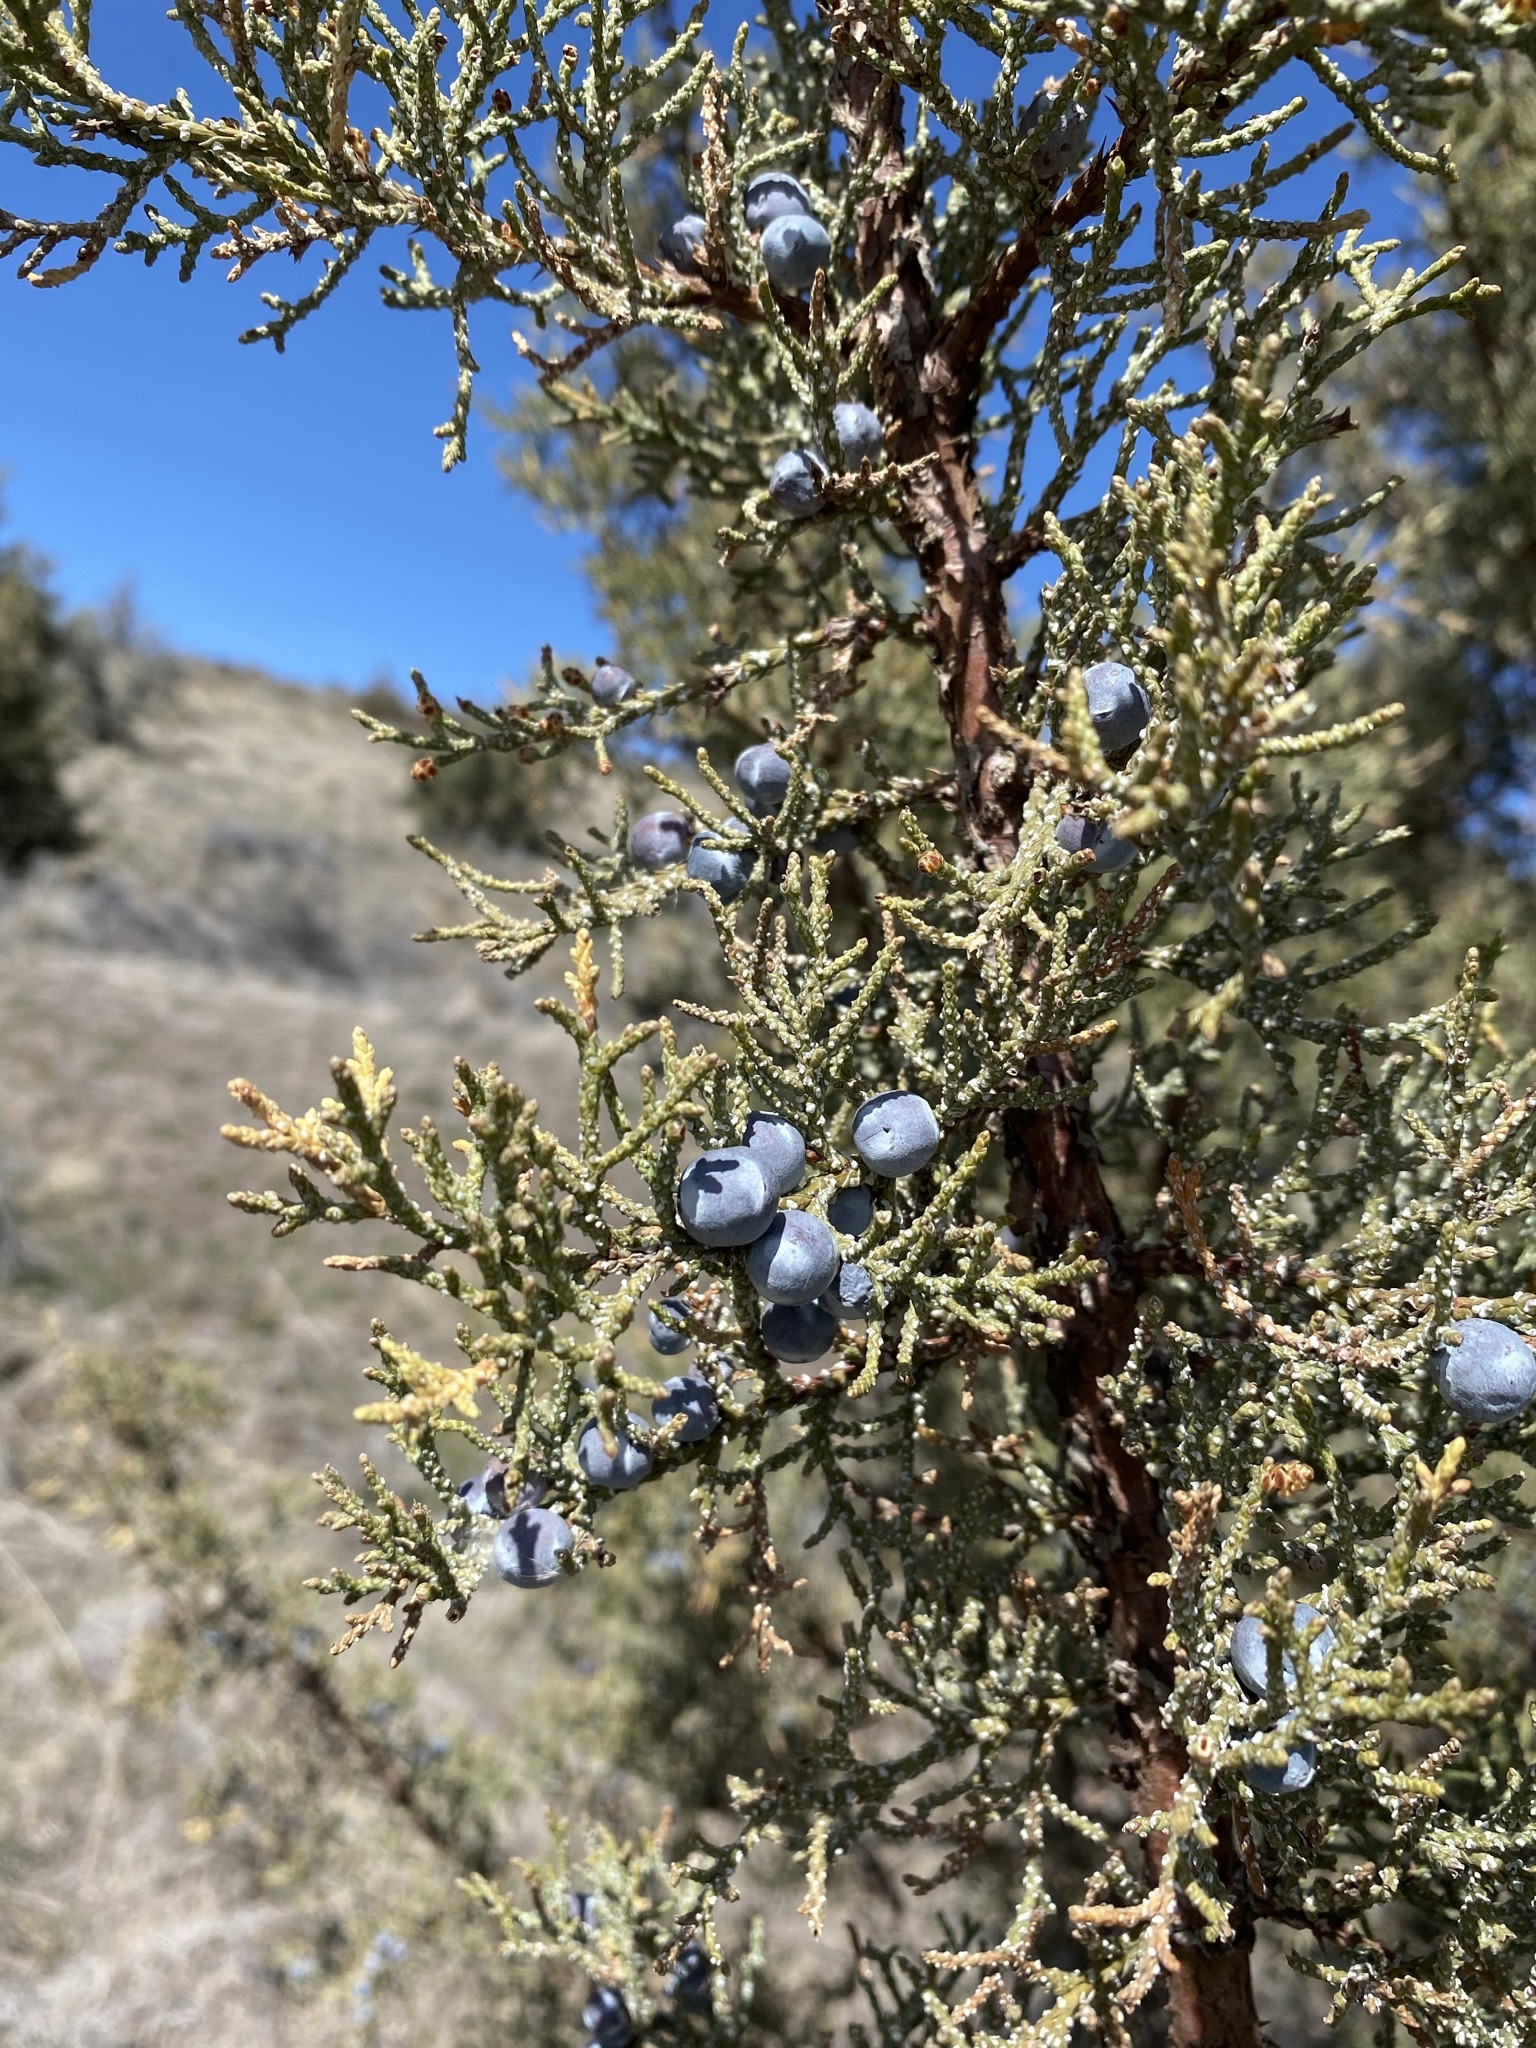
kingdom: Plantae
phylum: Tracheophyta
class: Pinopsida
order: Pinales
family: Cupressaceae
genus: Juniperus
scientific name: Juniperus occidentalis
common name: Western juniper
